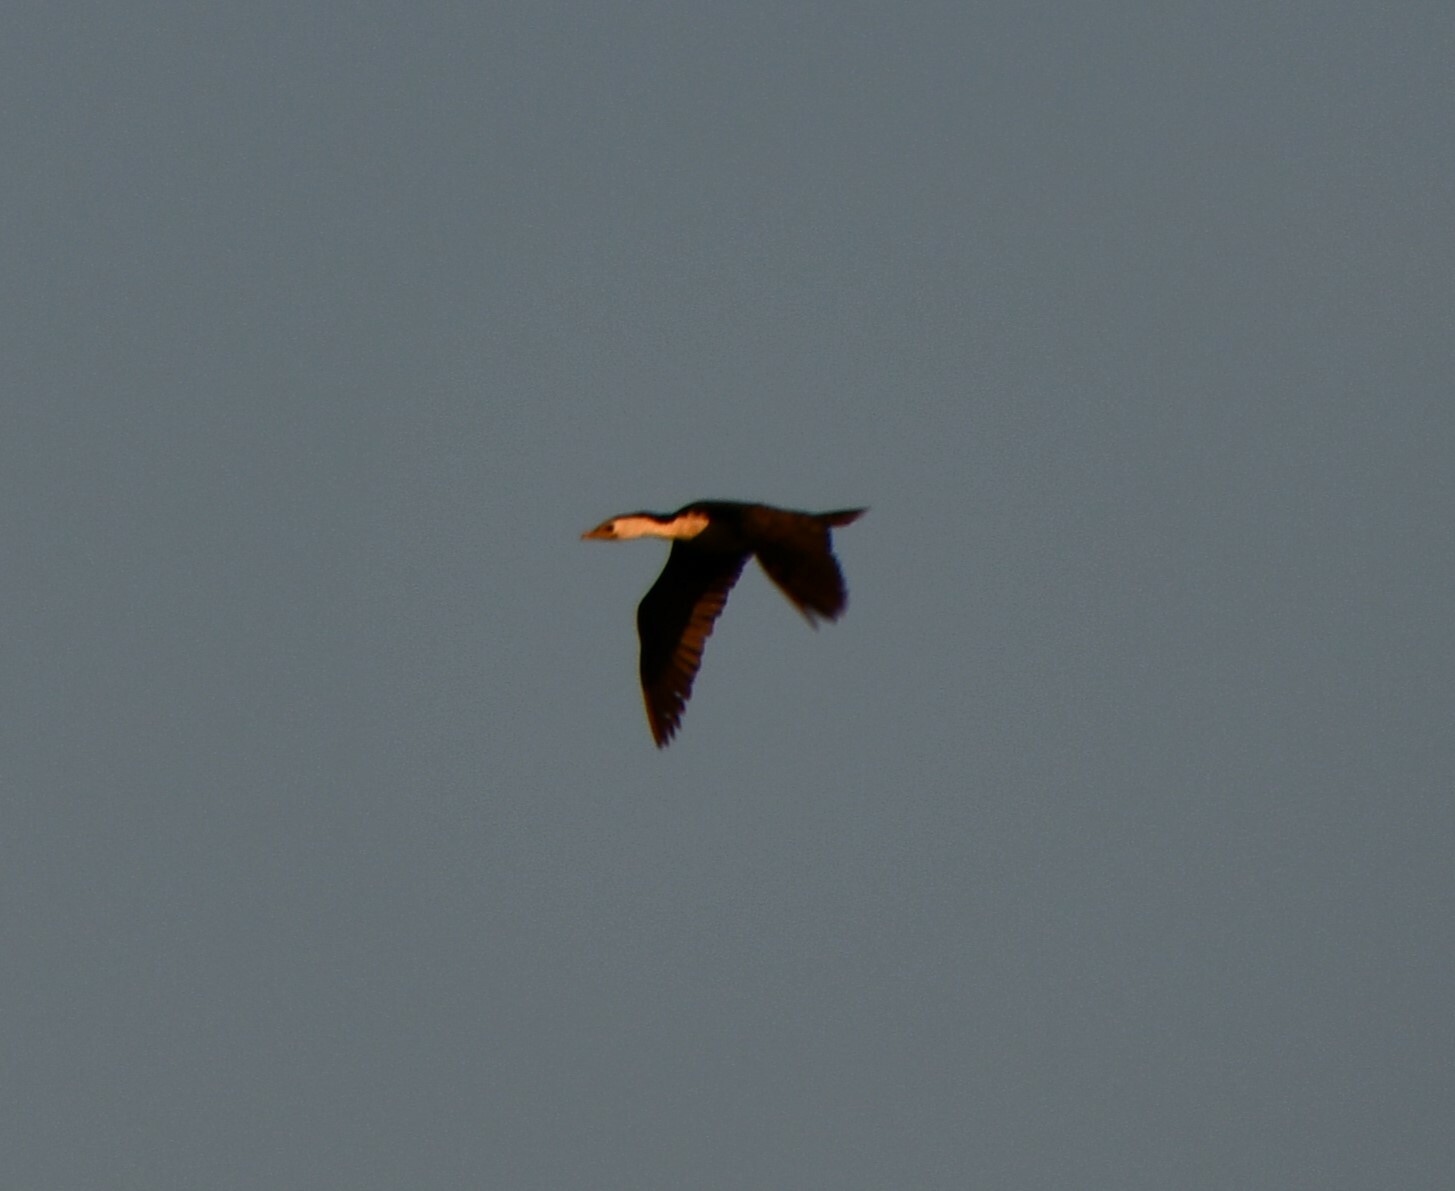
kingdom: Animalia
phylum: Chordata
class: Aves
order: Suliformes
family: Phalacrocoracidae
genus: Microcarbo
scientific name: Microcarbo melanoleucos
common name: Little pied cormorant
